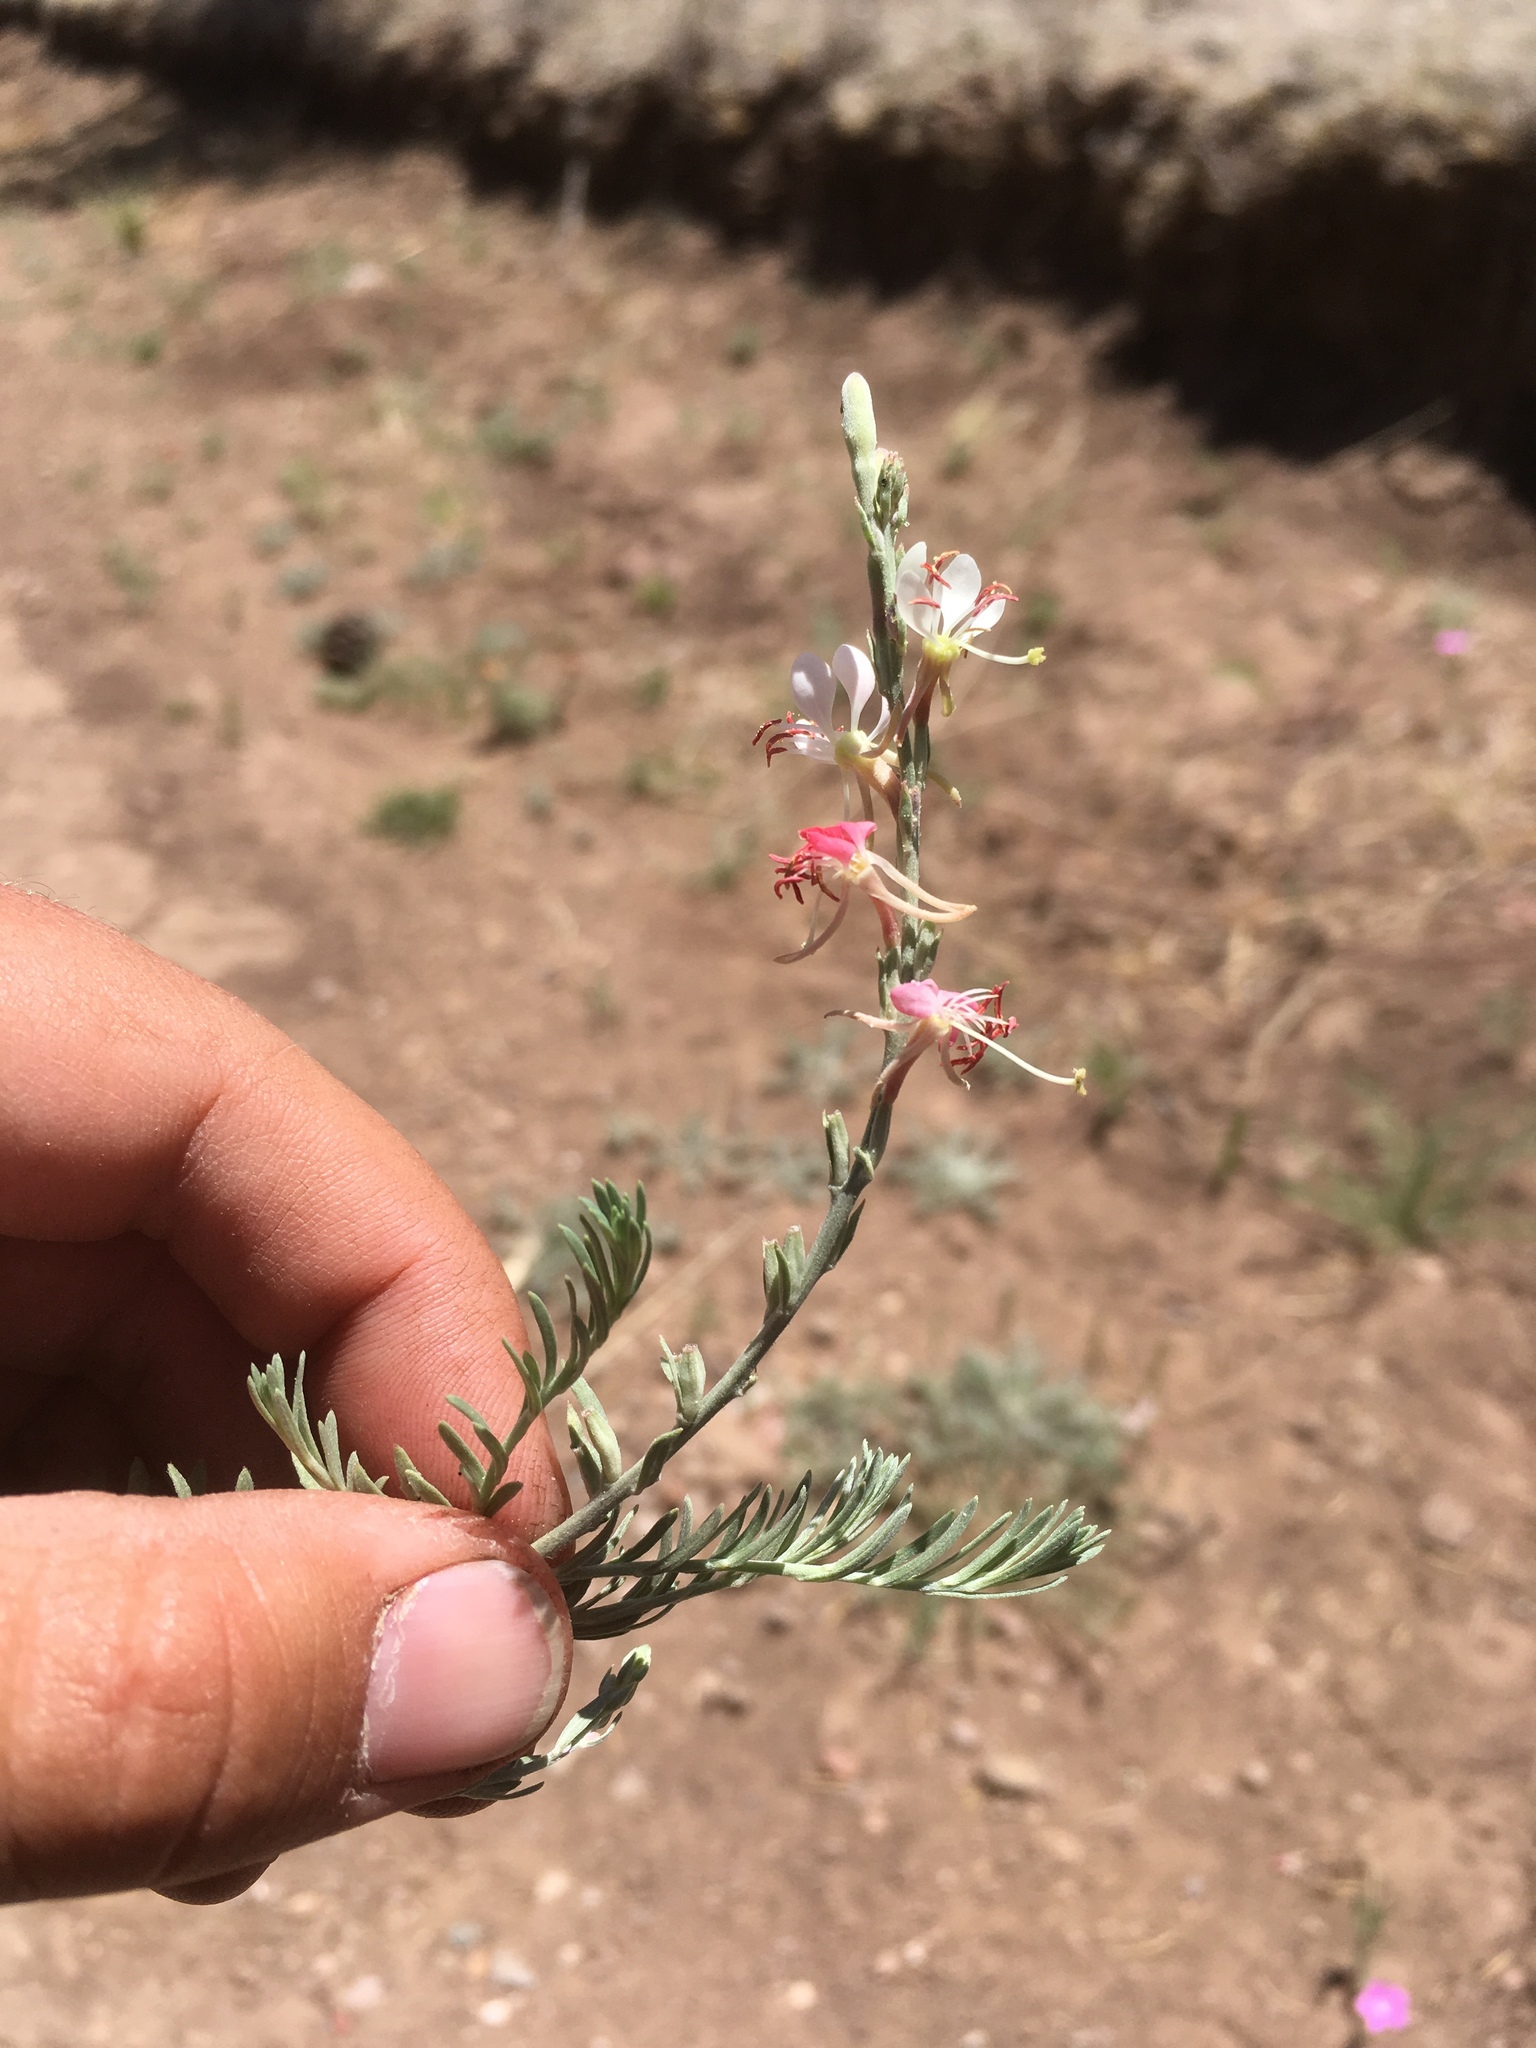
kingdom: Plantae
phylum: Tracheophyta
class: Magnoliopsida
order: Myrtales
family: Onagraceae
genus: Oenothera
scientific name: Oenothera suffrutescens
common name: Scarlet beeblossom
